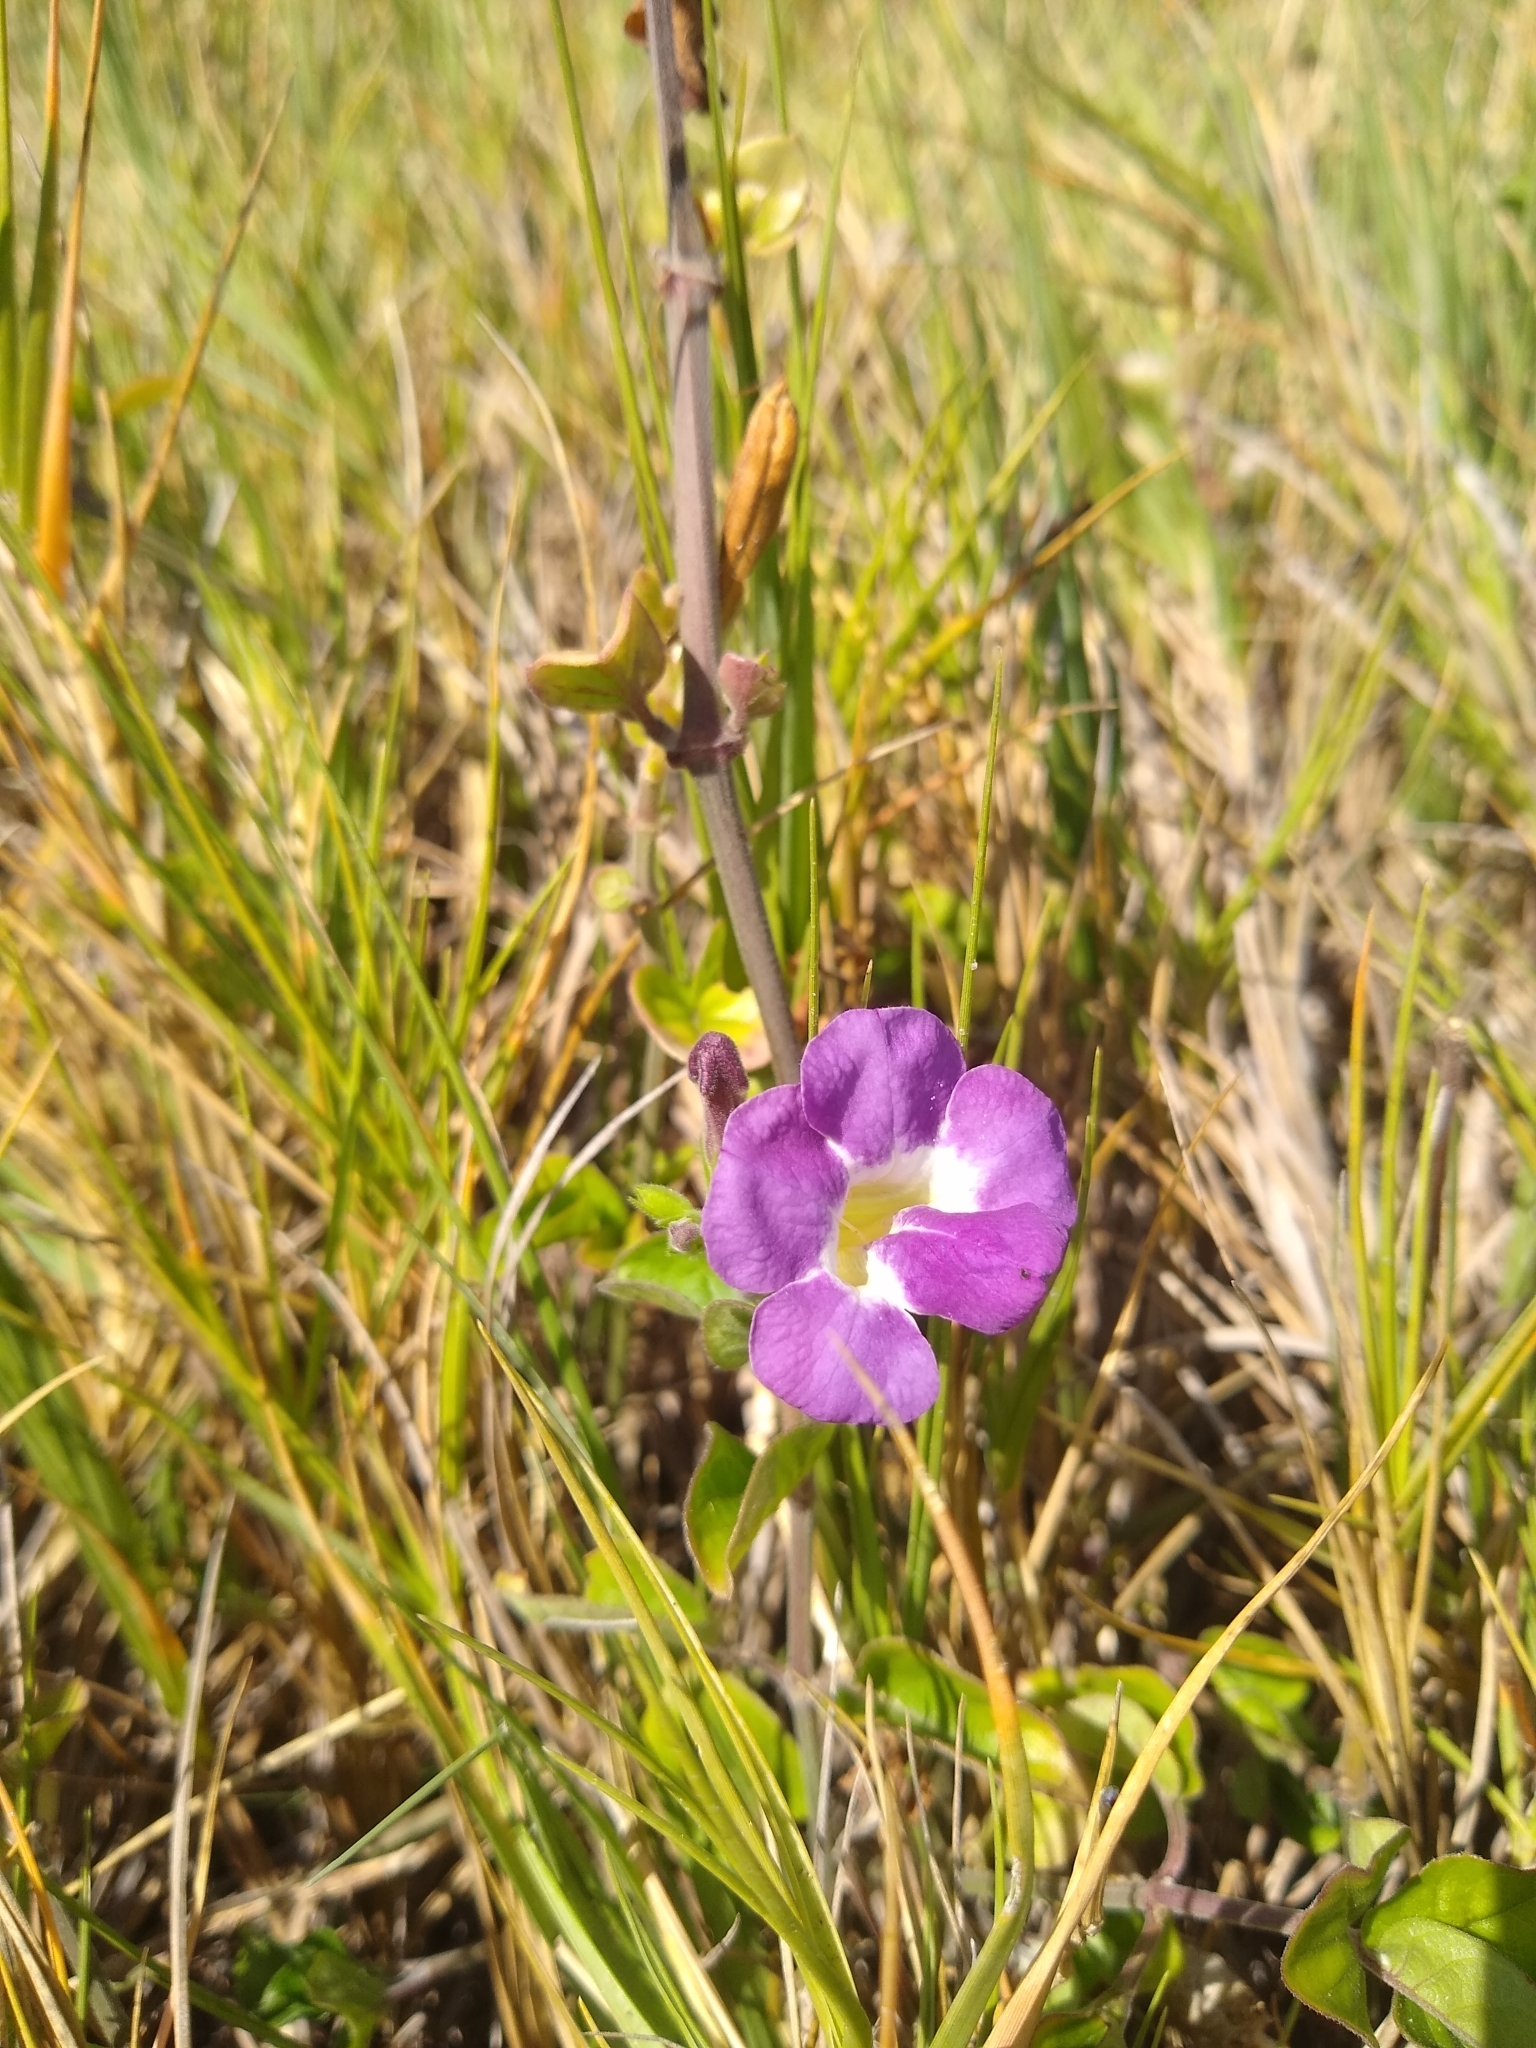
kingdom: Plantae
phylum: Tracheophyta
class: Magnoliopsida
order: Lamiales
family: Acanthaceae
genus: Asystasia
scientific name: Asystasia gangetica
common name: Chinese violet
